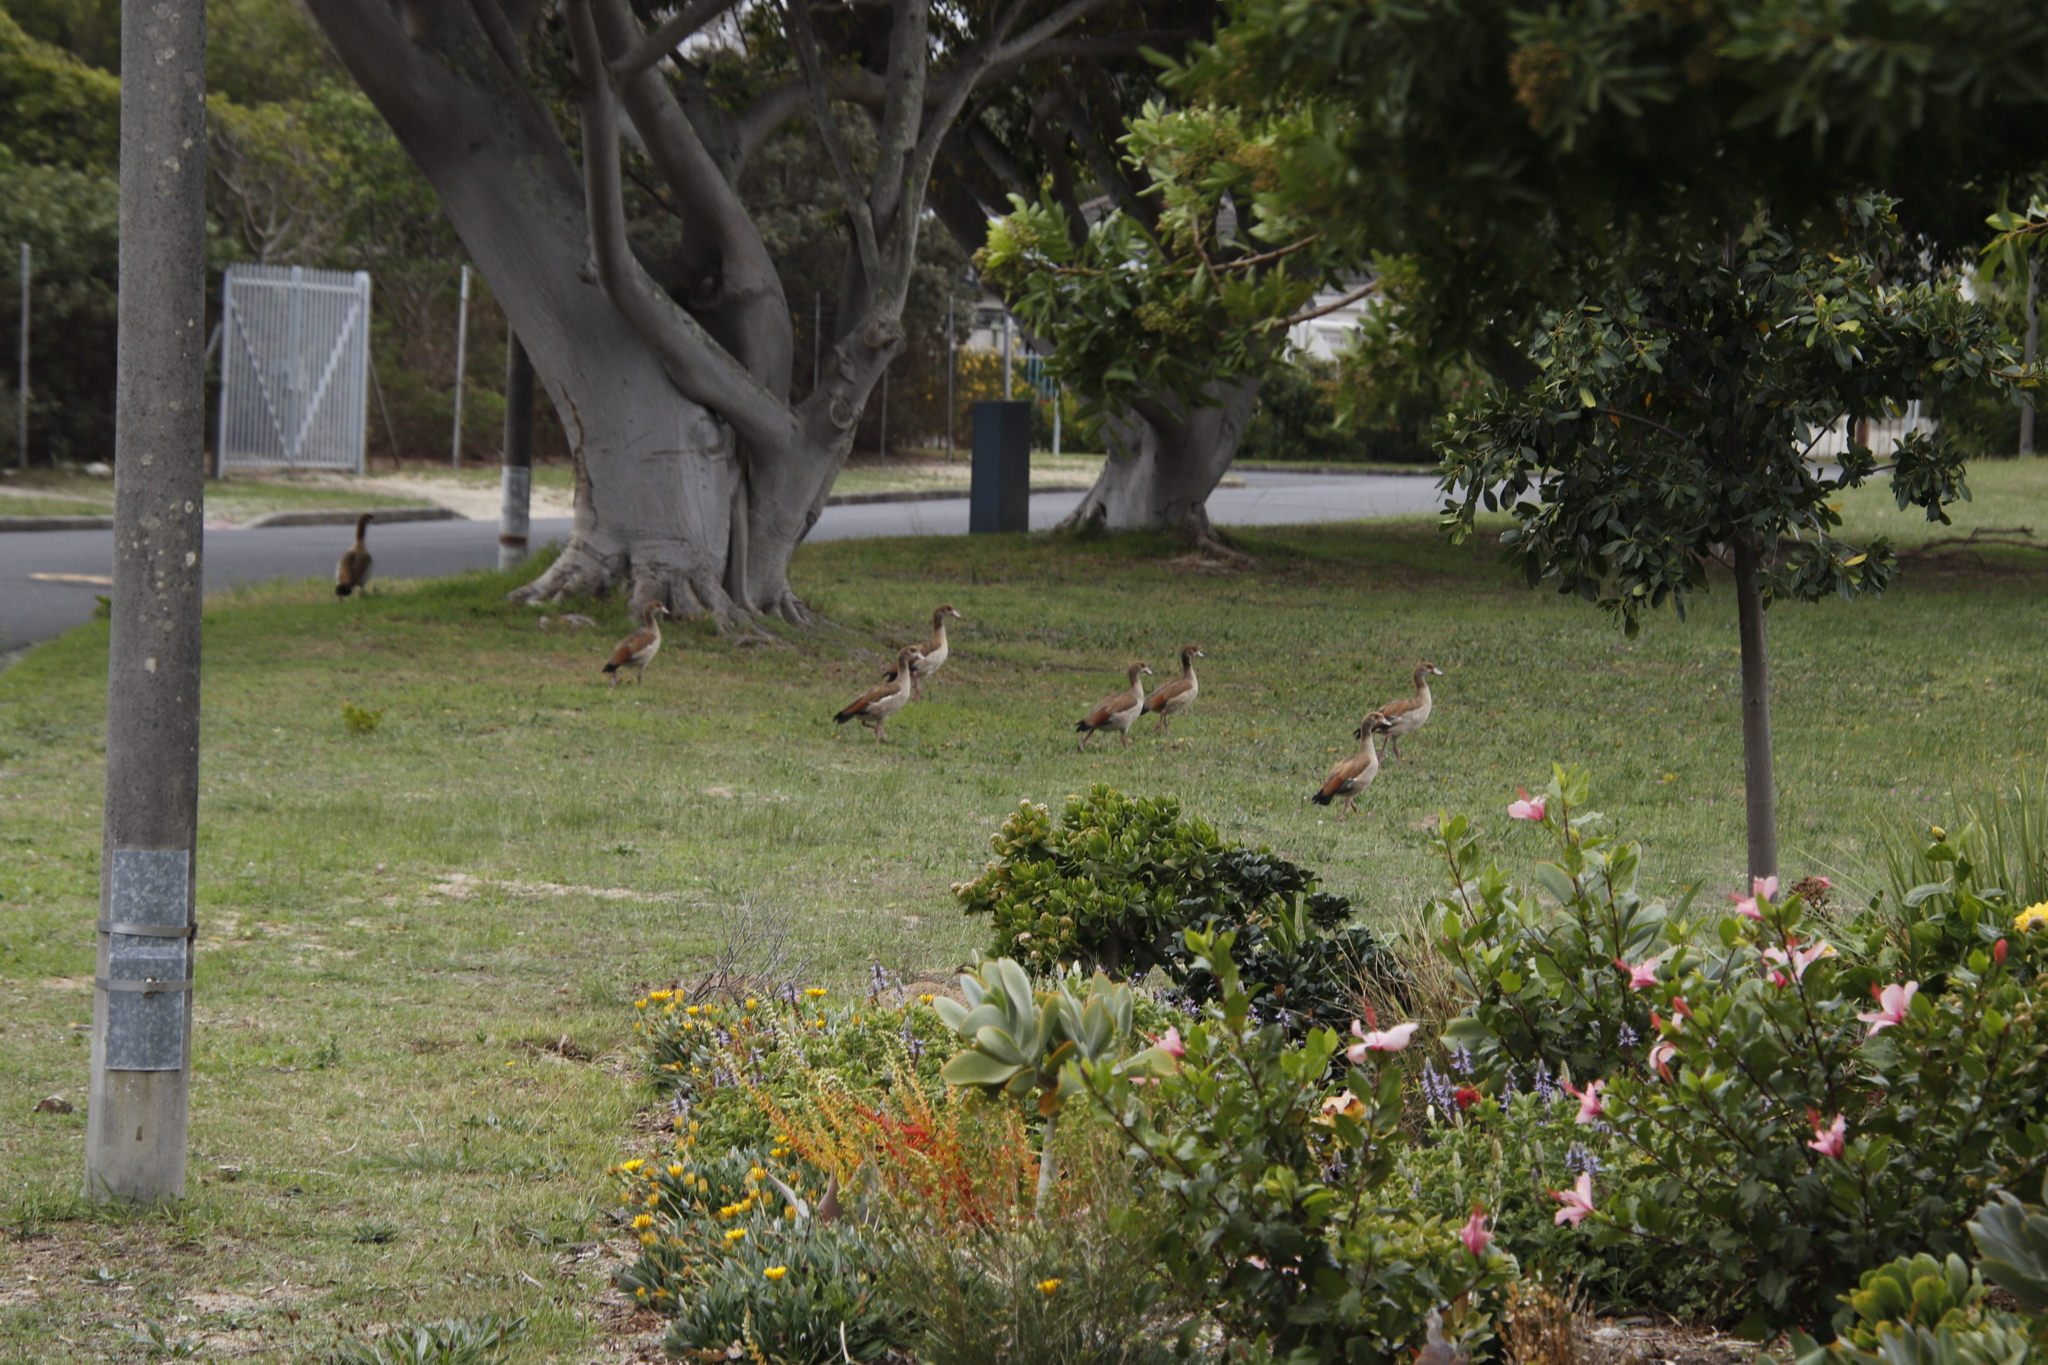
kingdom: Animalia
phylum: Chordata
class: Aves
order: Anseriformes
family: Anatidae
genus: Alopochen
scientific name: Alopochen aegyptiaca
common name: Egyptian goose
